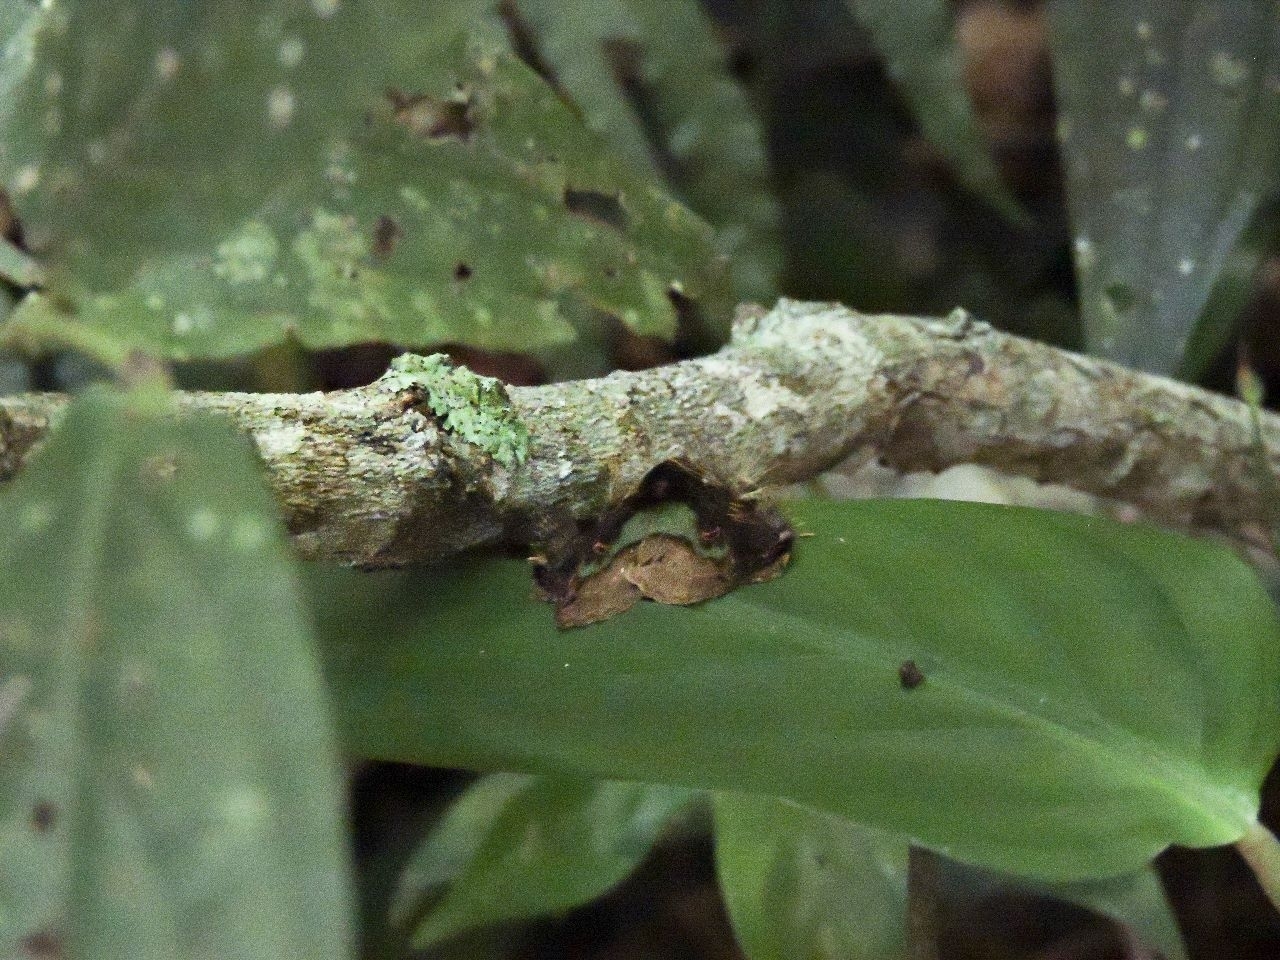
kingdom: Animalia
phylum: Arthropoda
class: Insecta
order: Lepidoptera
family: Erebidae
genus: Ceroctena
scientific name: Ceroctena amynta
